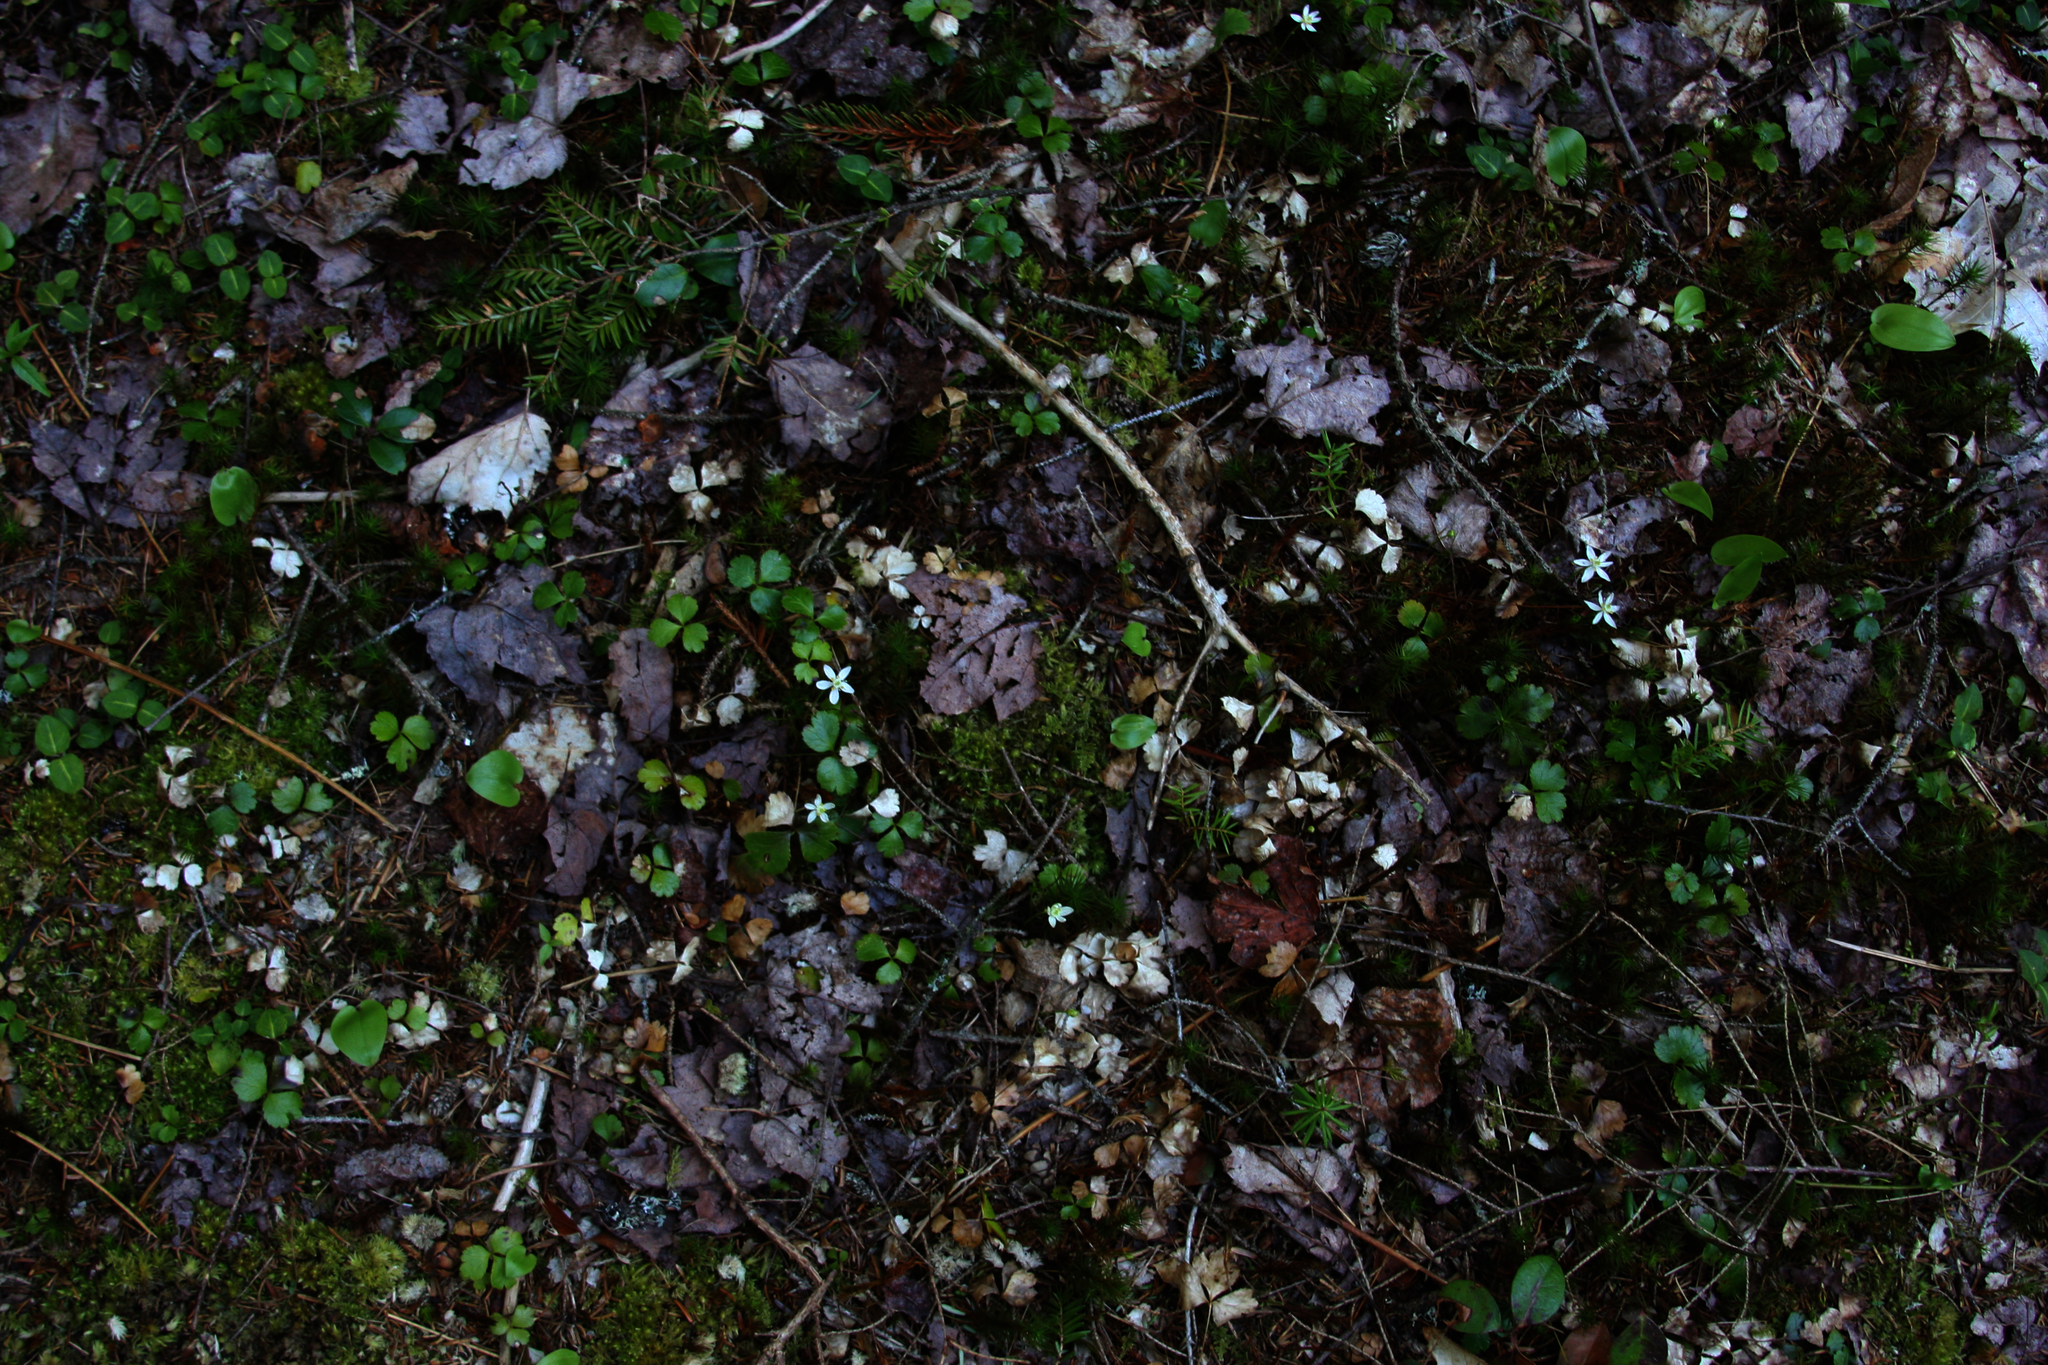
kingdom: Plantae
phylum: Tracheophyta
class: Magnoliopsida
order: Ranunculales
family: Ranunculaceae
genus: Coptis
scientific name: Coptis trifolia
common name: Canker-root
